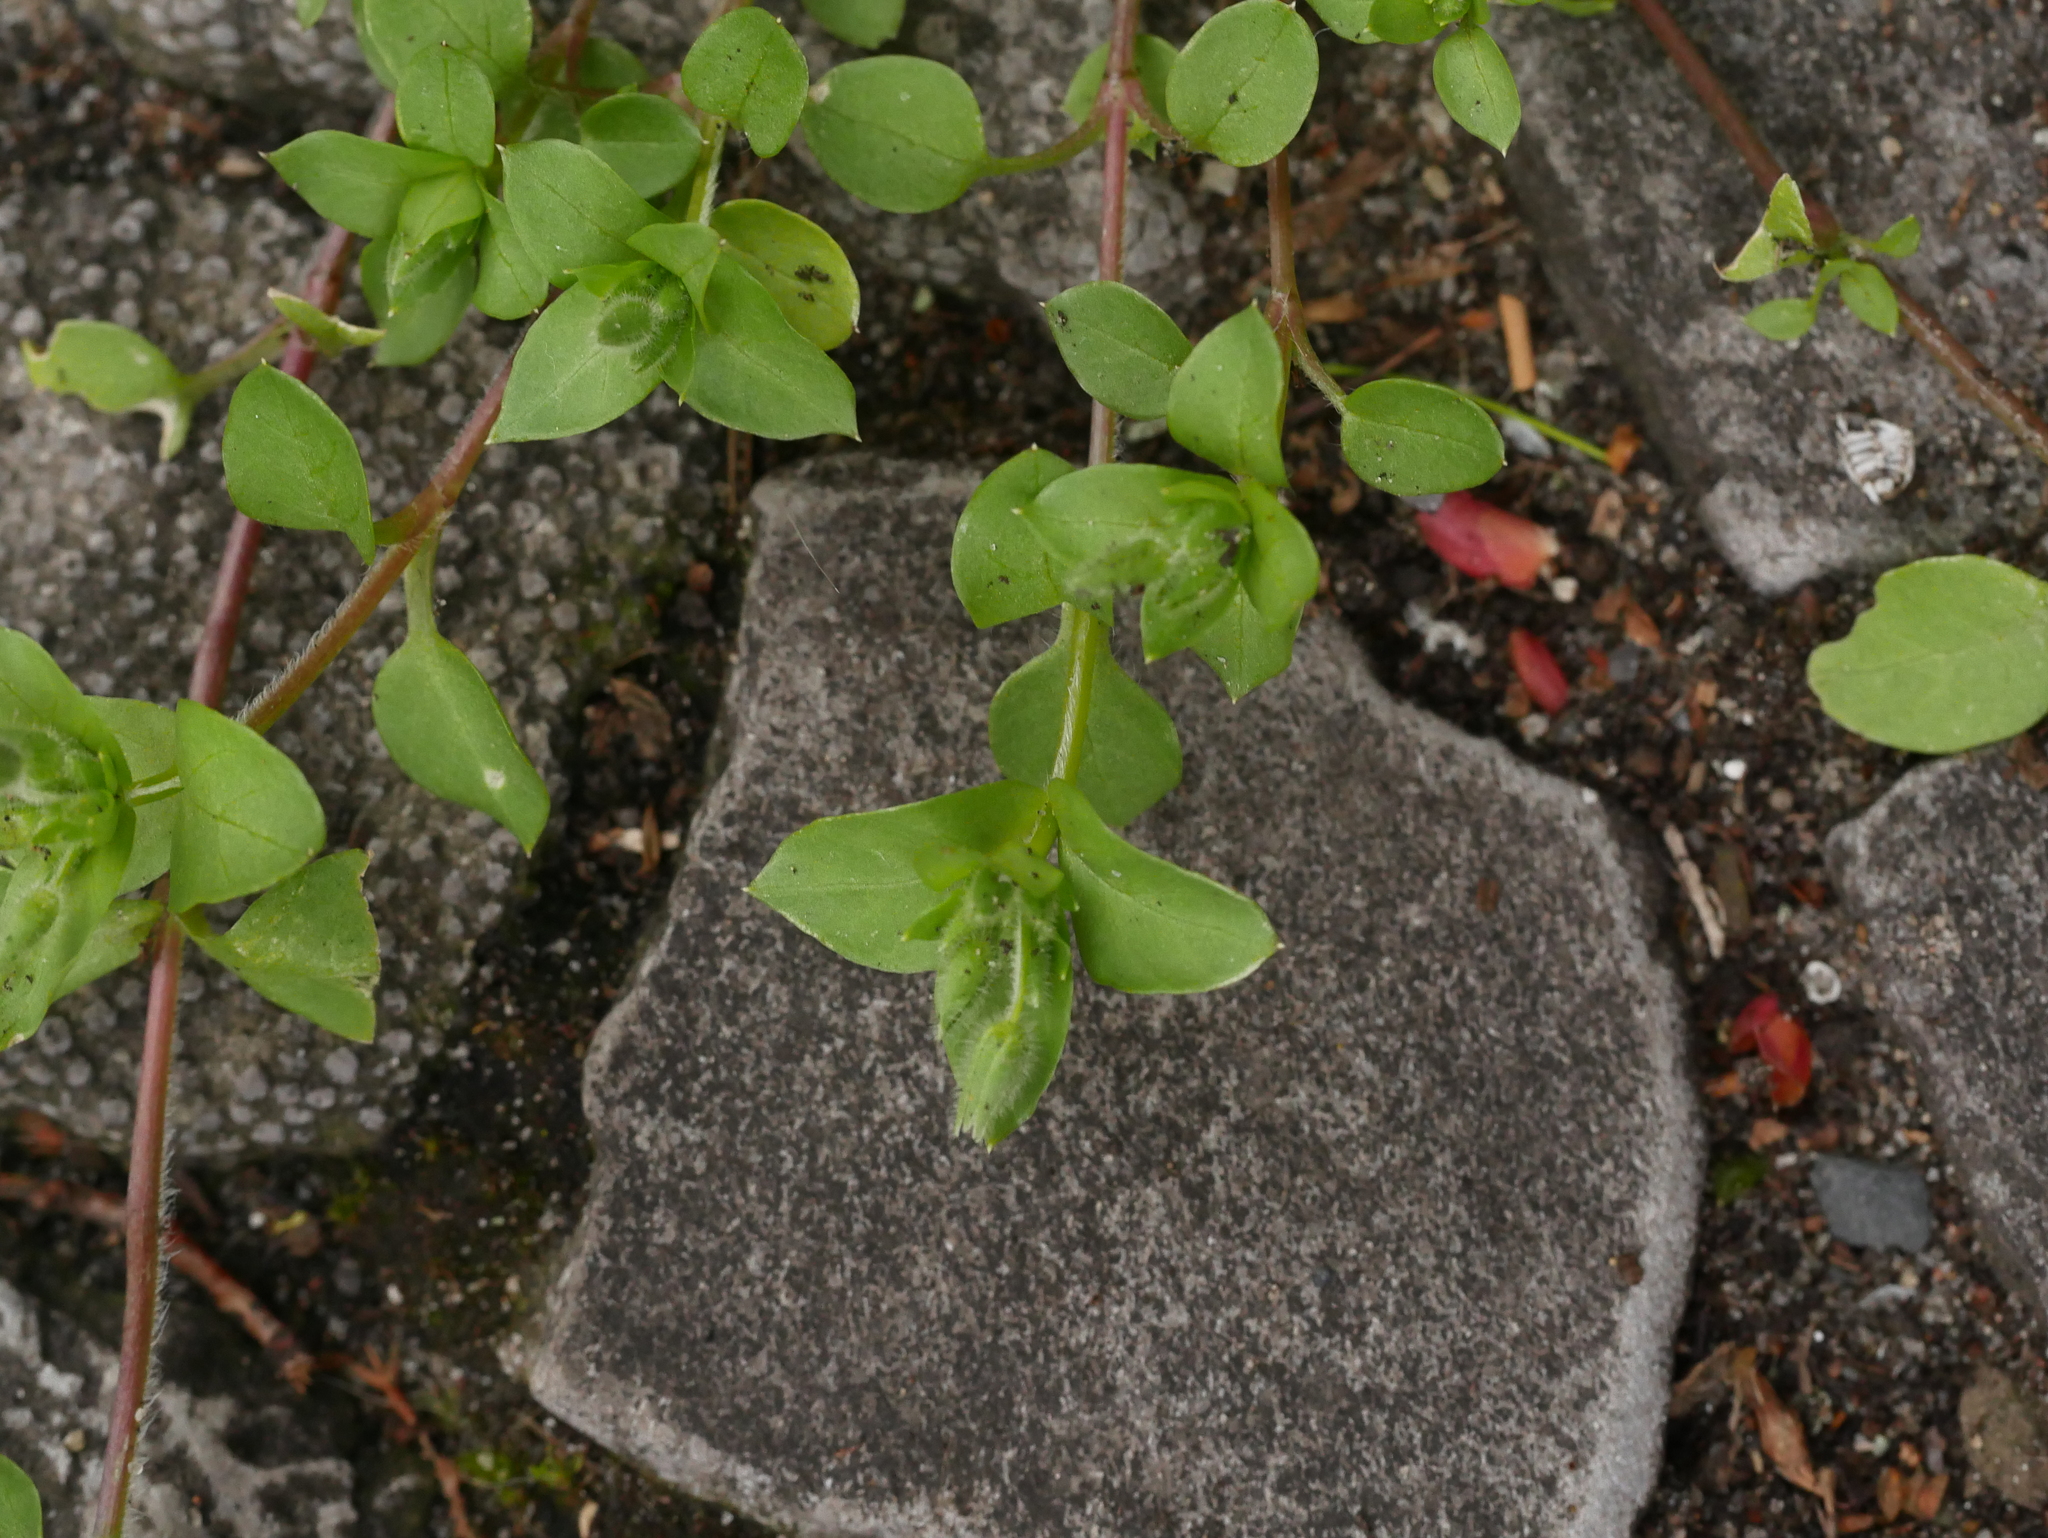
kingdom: Plantae
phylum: Tracheophyta
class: Magnoliopsida
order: Caryophyllales
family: Caryophyllaceae
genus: Stellaria
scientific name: Stellaria media
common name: Common chickweed
